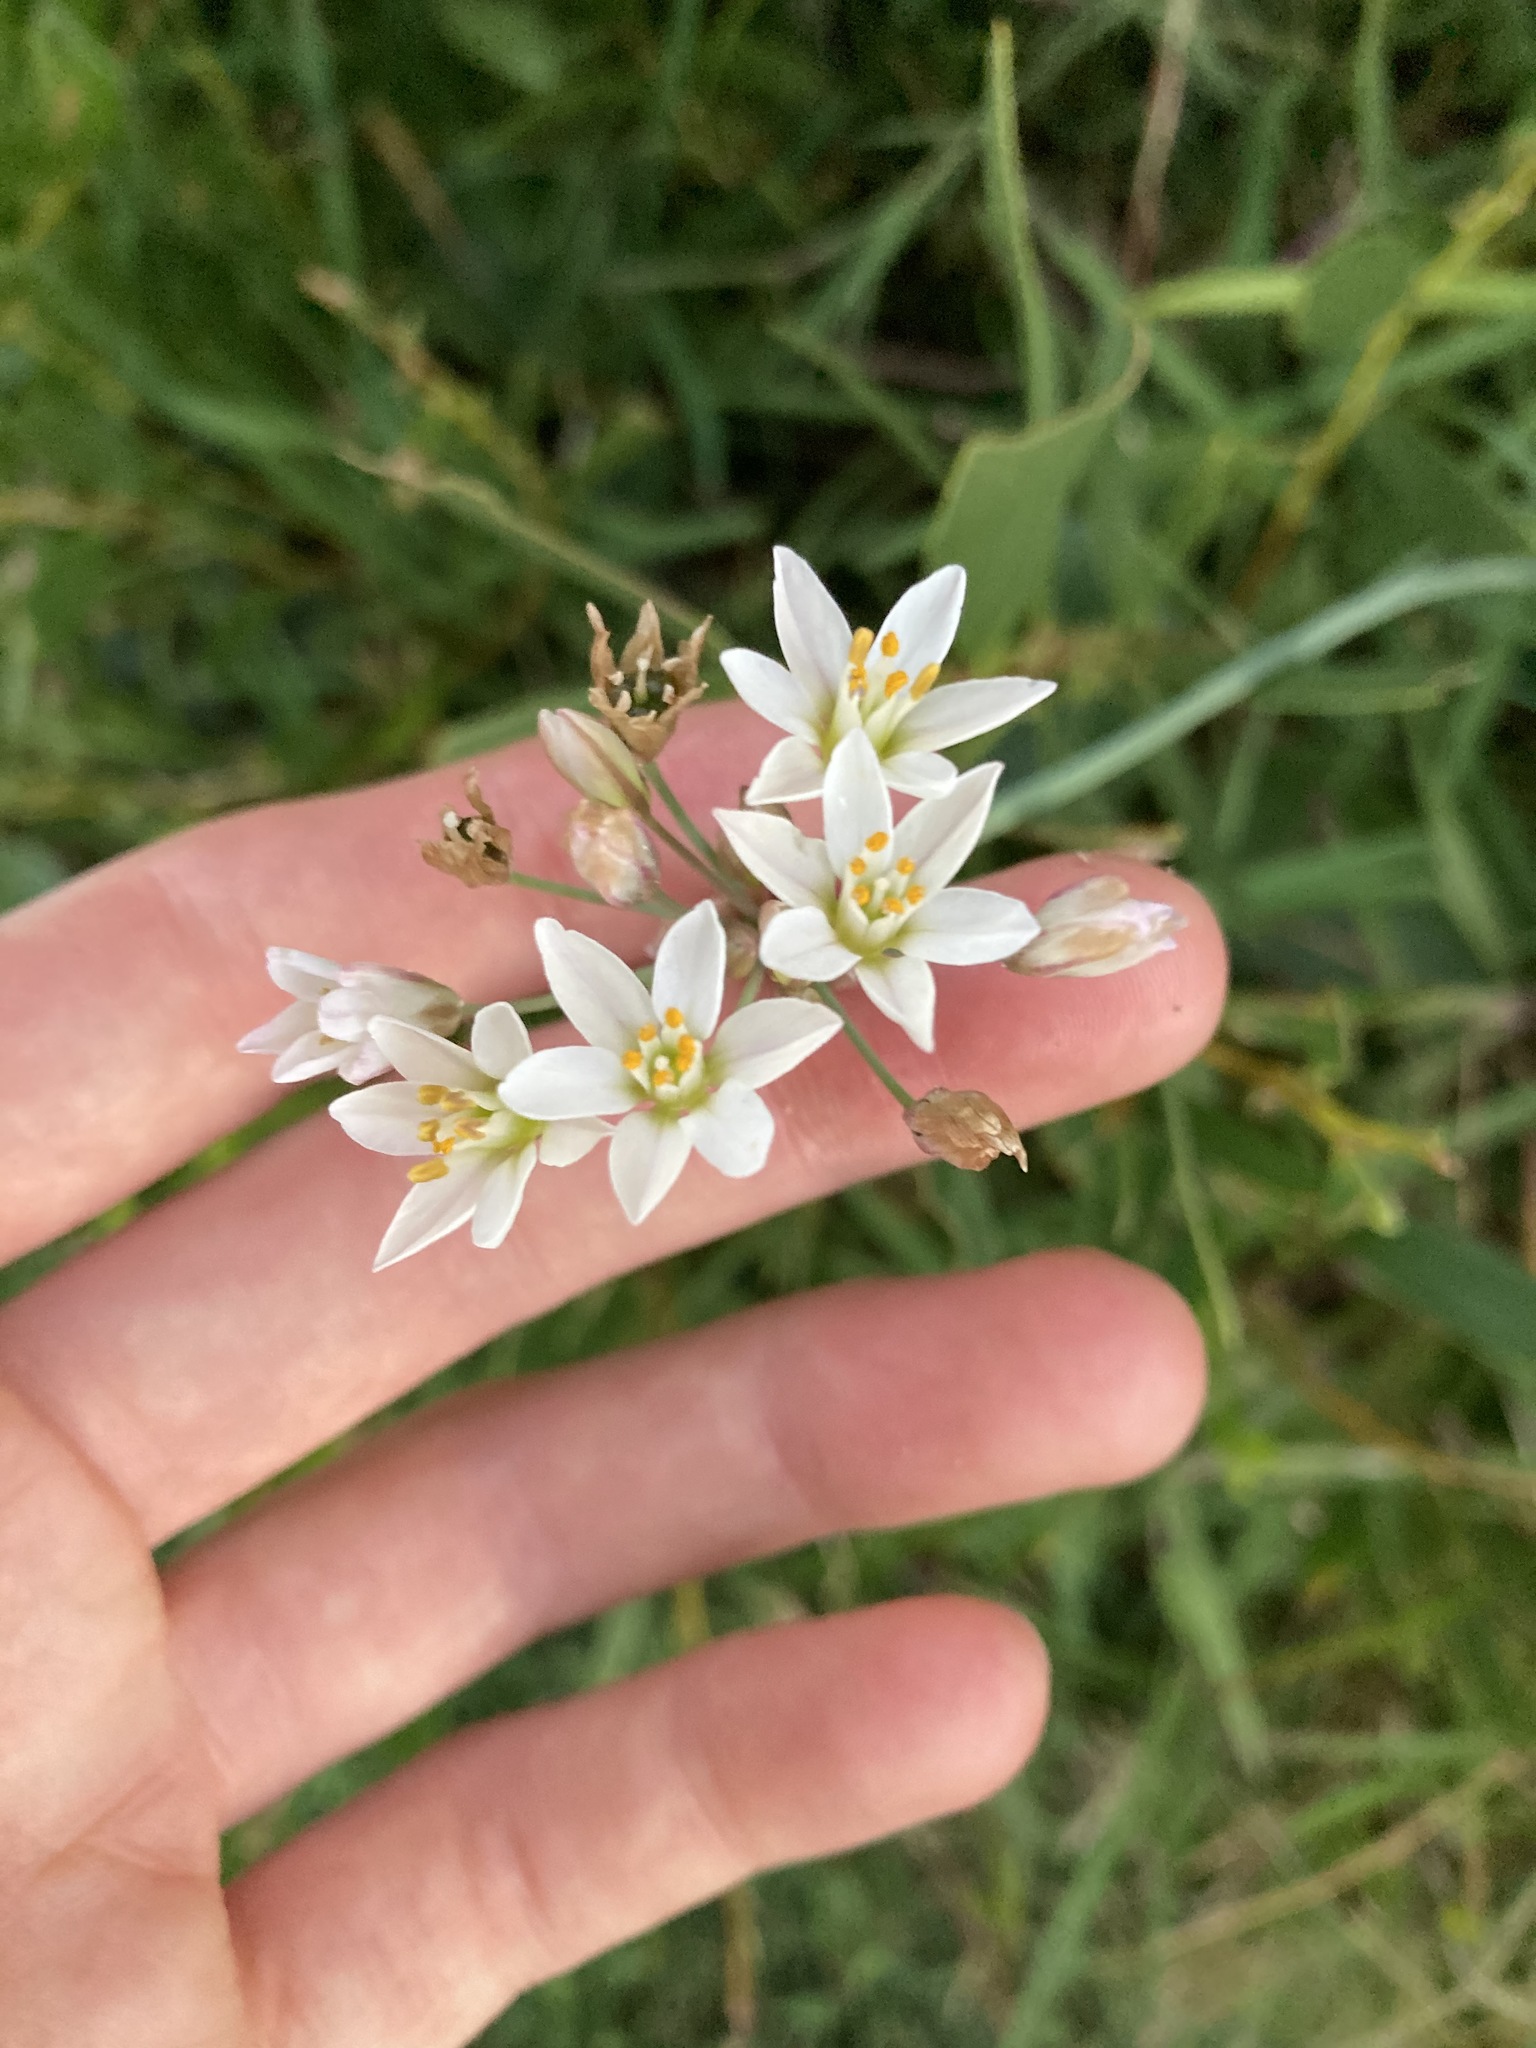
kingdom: Plantae
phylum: Tracheophyta
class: Liliopsida
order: Asparagales
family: Amaryllidaceae
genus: Nothoscordum
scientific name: Nothoscordum gracile
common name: Slender false garlic
